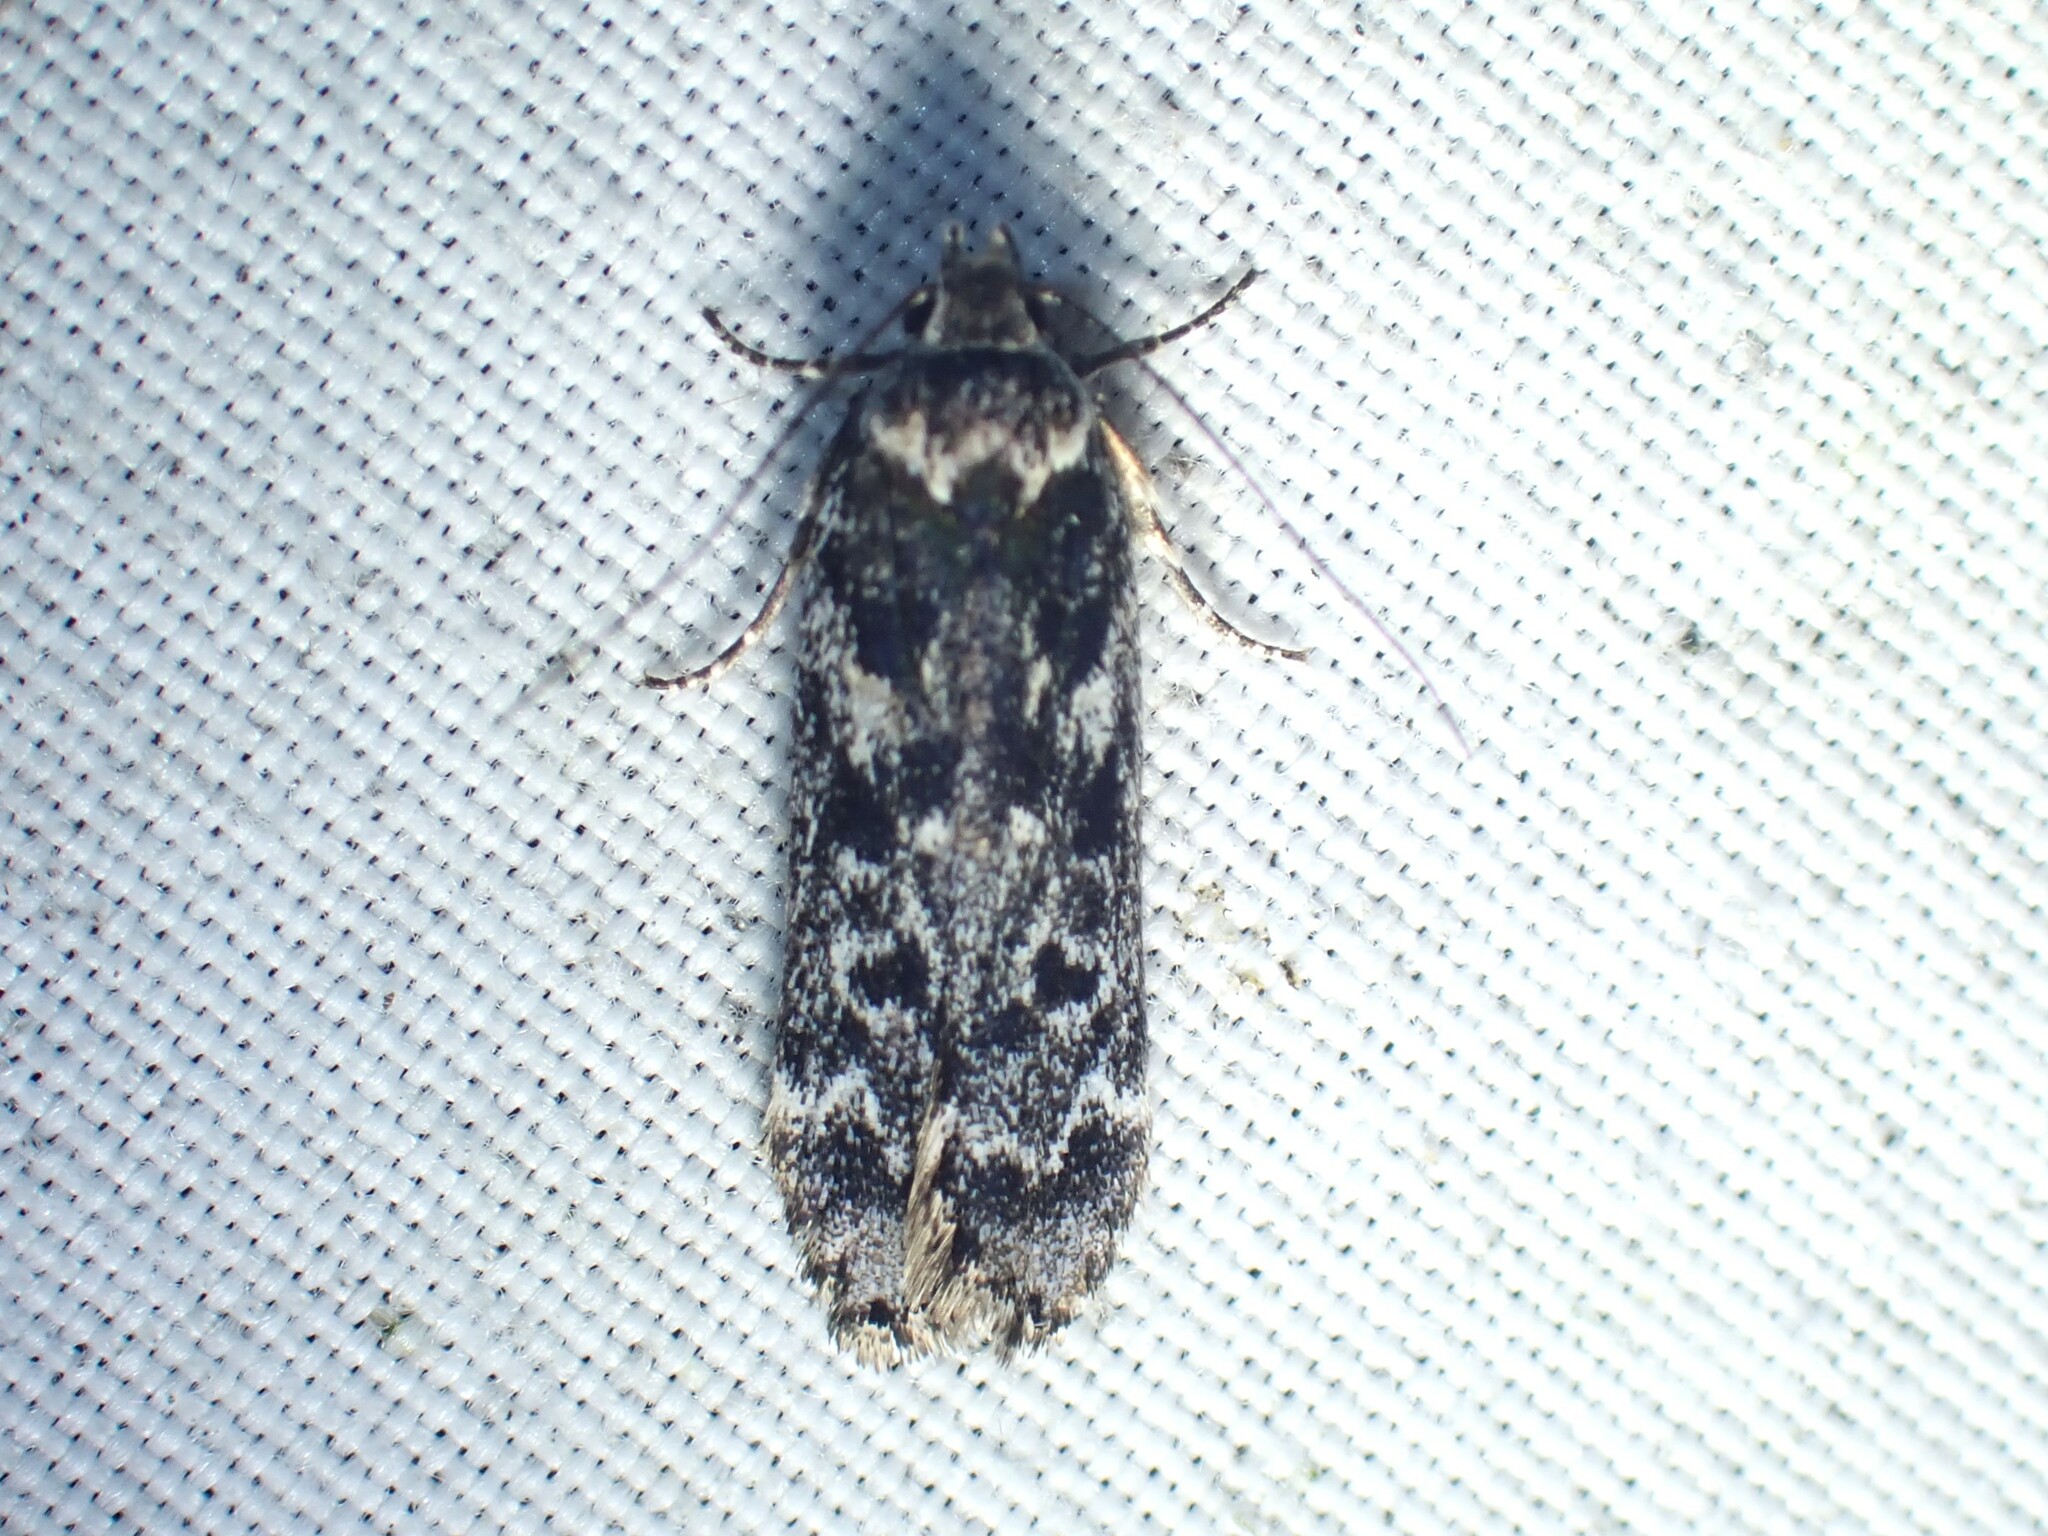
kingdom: Animalia
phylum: Arthropoda
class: Insecta
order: Lepidoptera
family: Gelechiidae
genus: Anacampsis
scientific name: Anacampsis niveopulvella
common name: Pale-headed aspen leafroller moth
